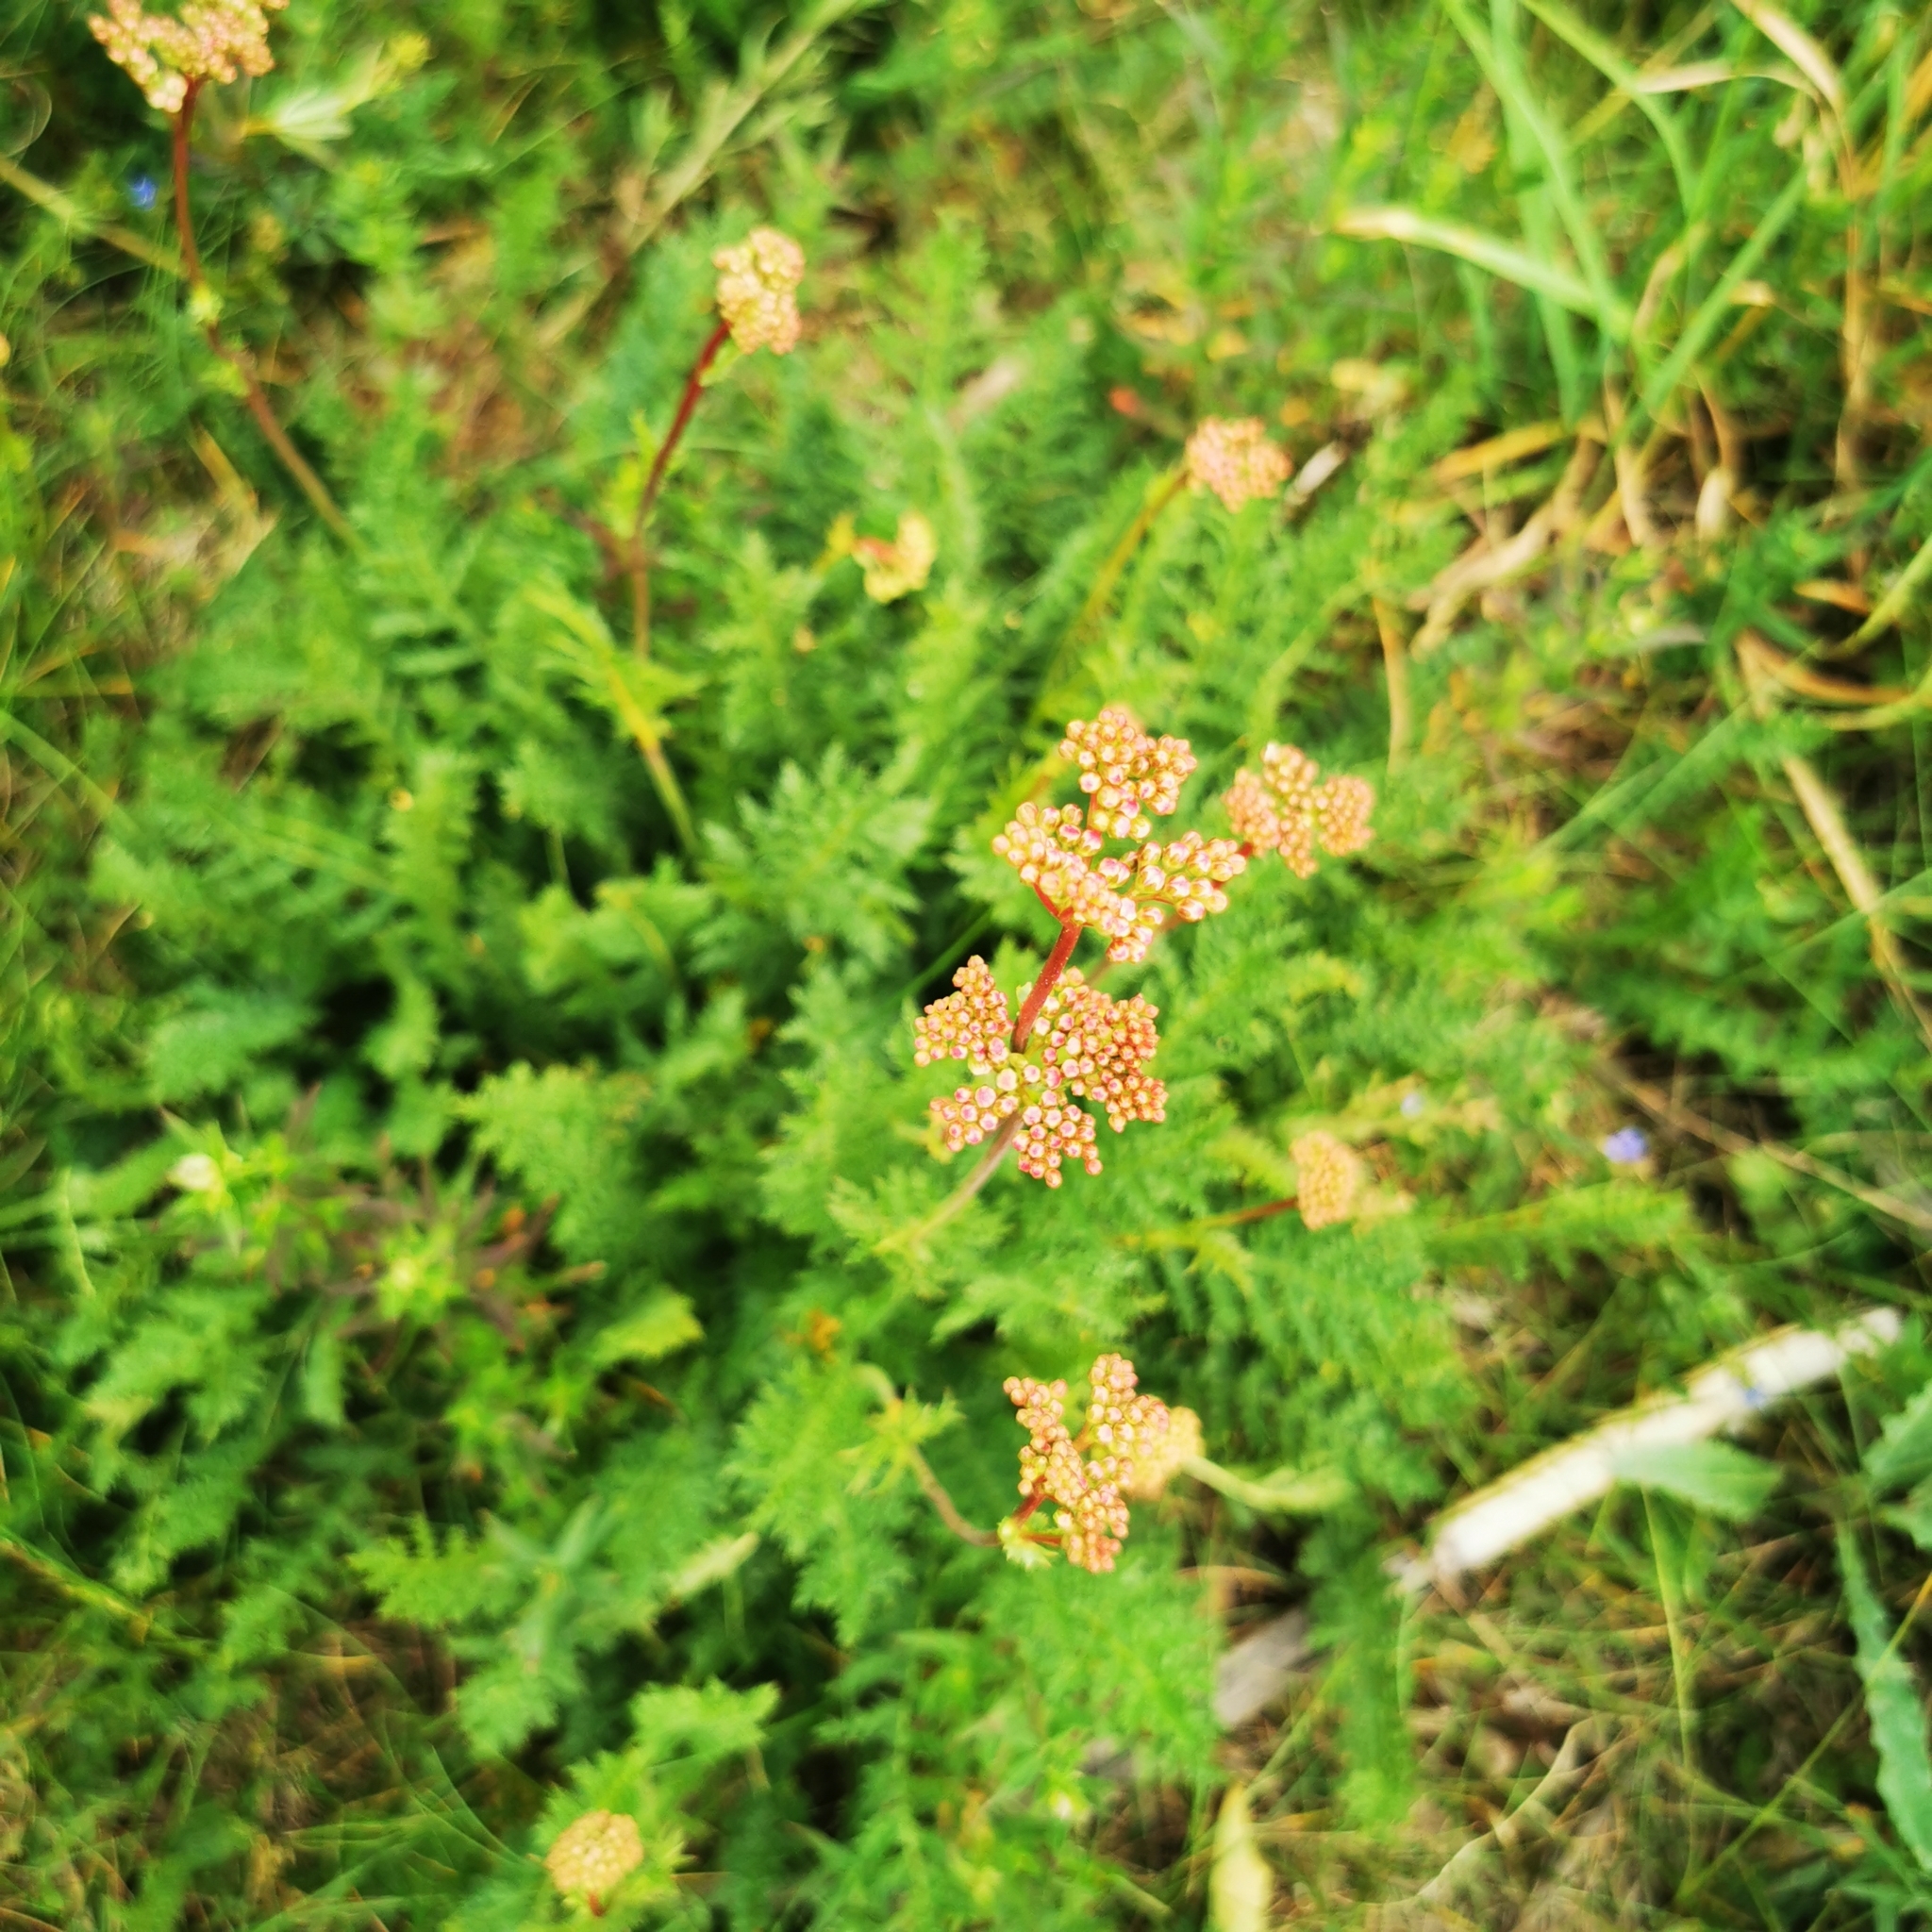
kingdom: Plantae
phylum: Tracheophyta
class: Magnoliopsida
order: Rosales
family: Rosaceae
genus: Filipendula
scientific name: Filipendula vulgaris
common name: Dropwort
